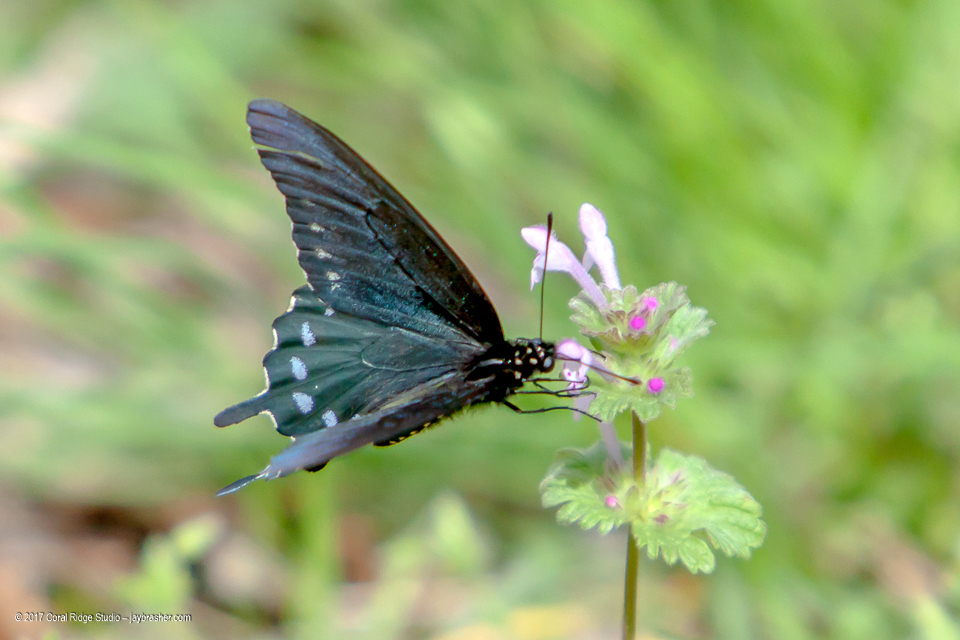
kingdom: Animalia
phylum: Arthropoda
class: Insecta
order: Lepidoptera
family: Papilionidae
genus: Battus
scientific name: Battus philenor
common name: Pipevine swallowtail
